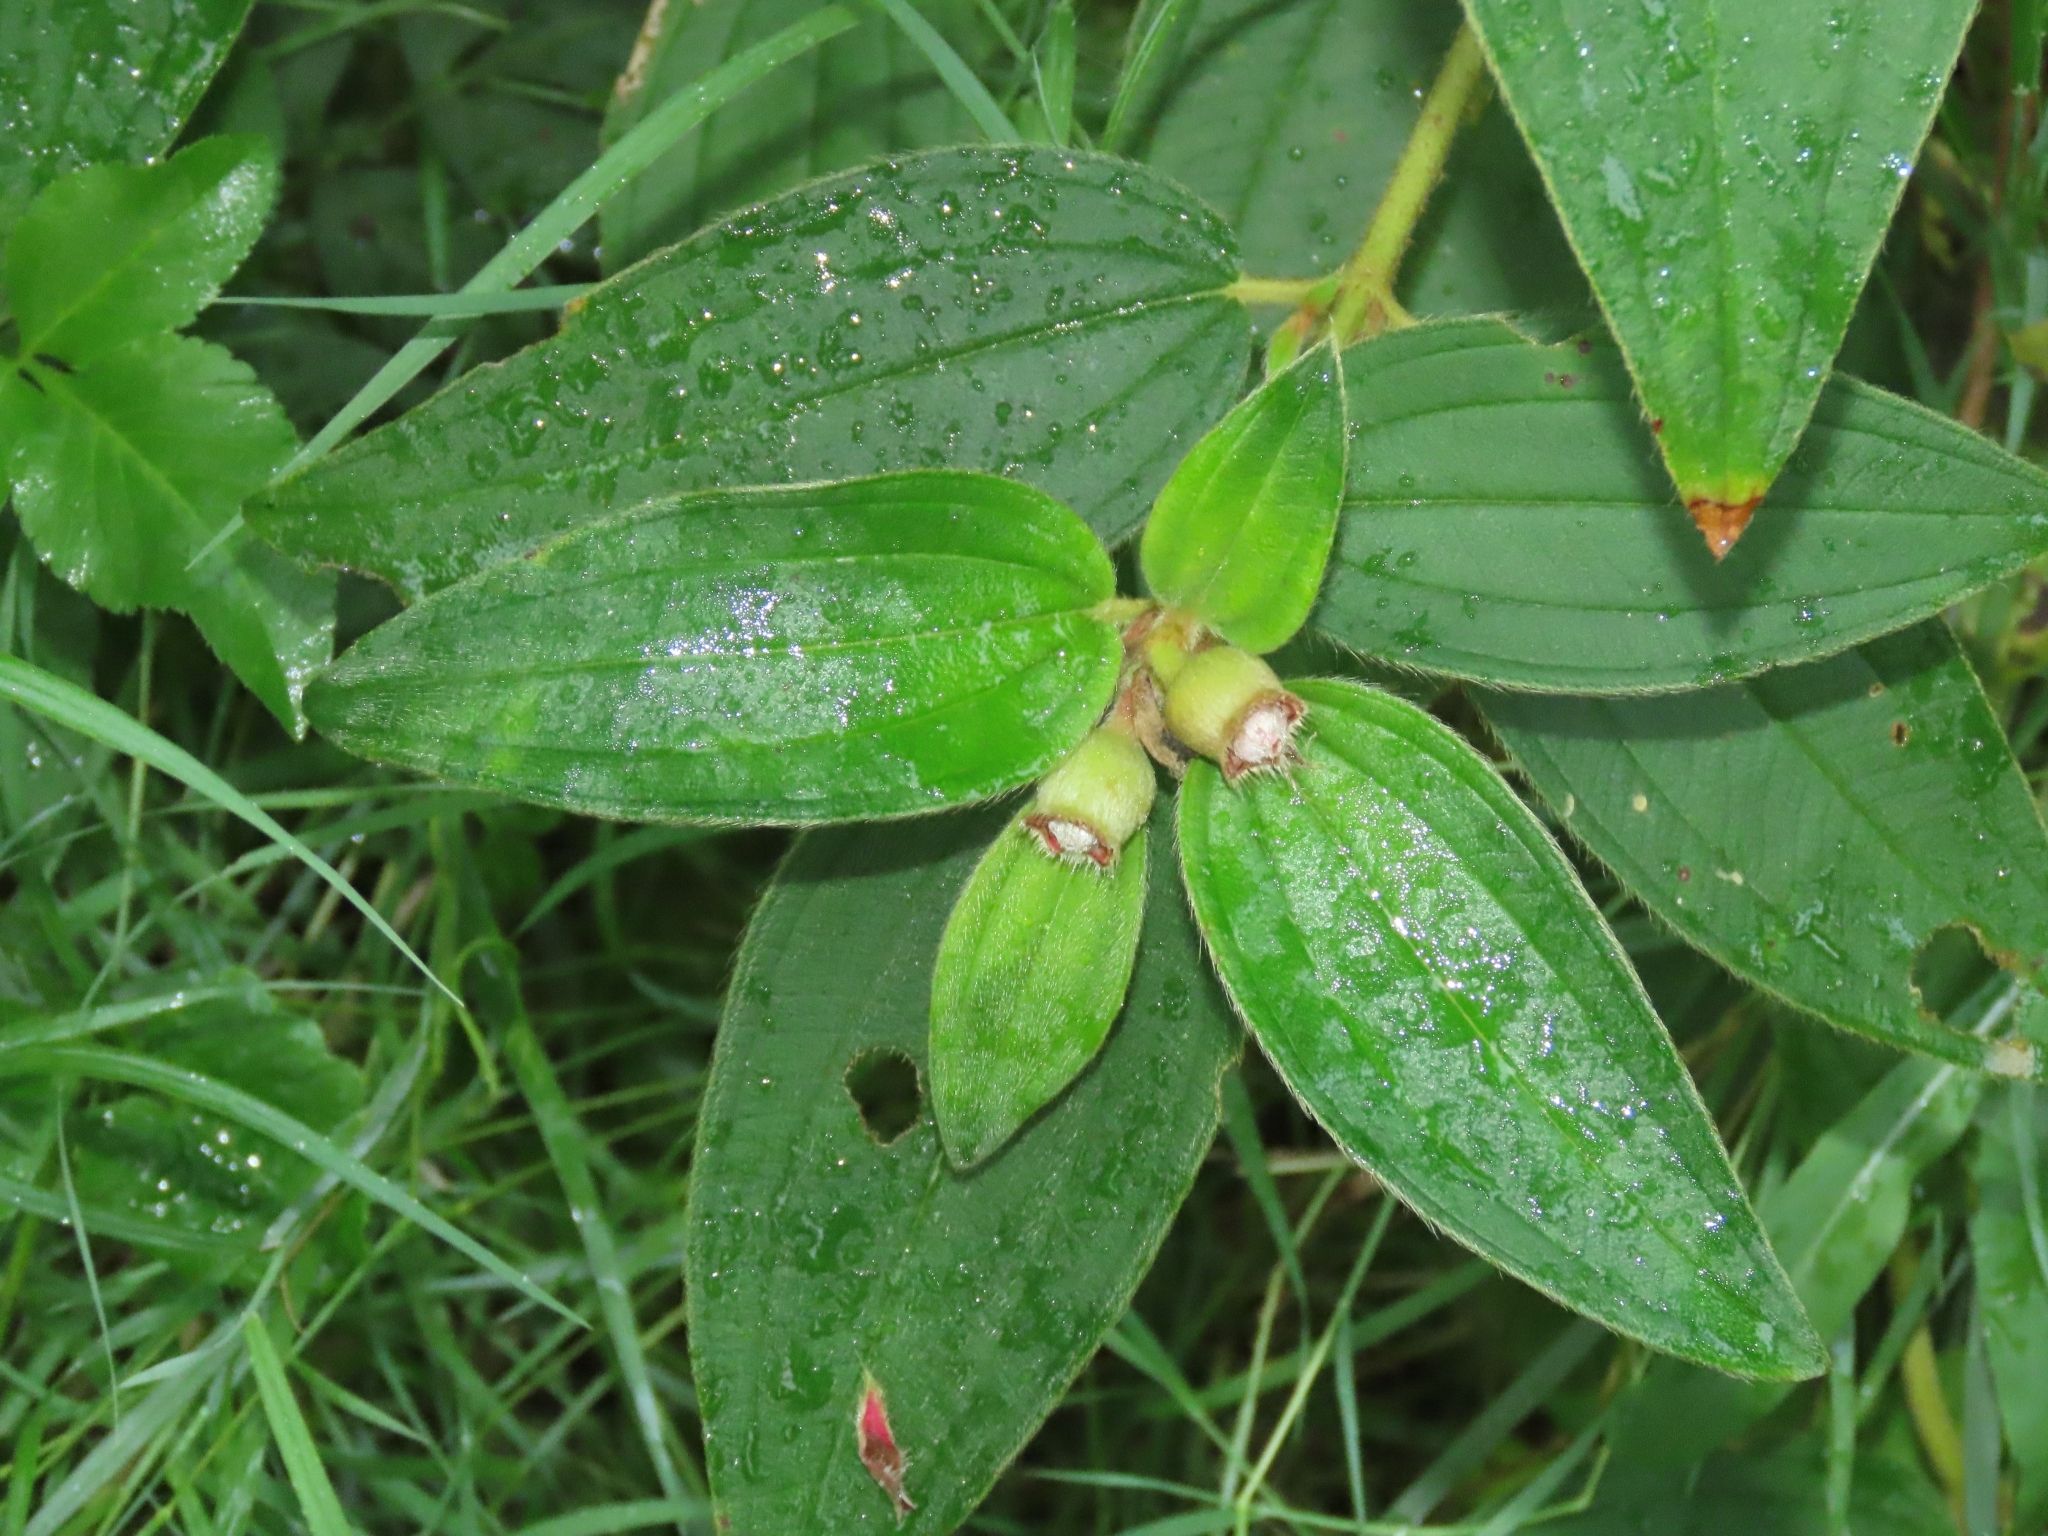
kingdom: Plantae
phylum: Tracheophyta
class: Magnoliopsida
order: Myrtales
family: Melastomataceae
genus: Melastoma
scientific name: Melastoma malabathricum
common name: Indian-rhododendron
